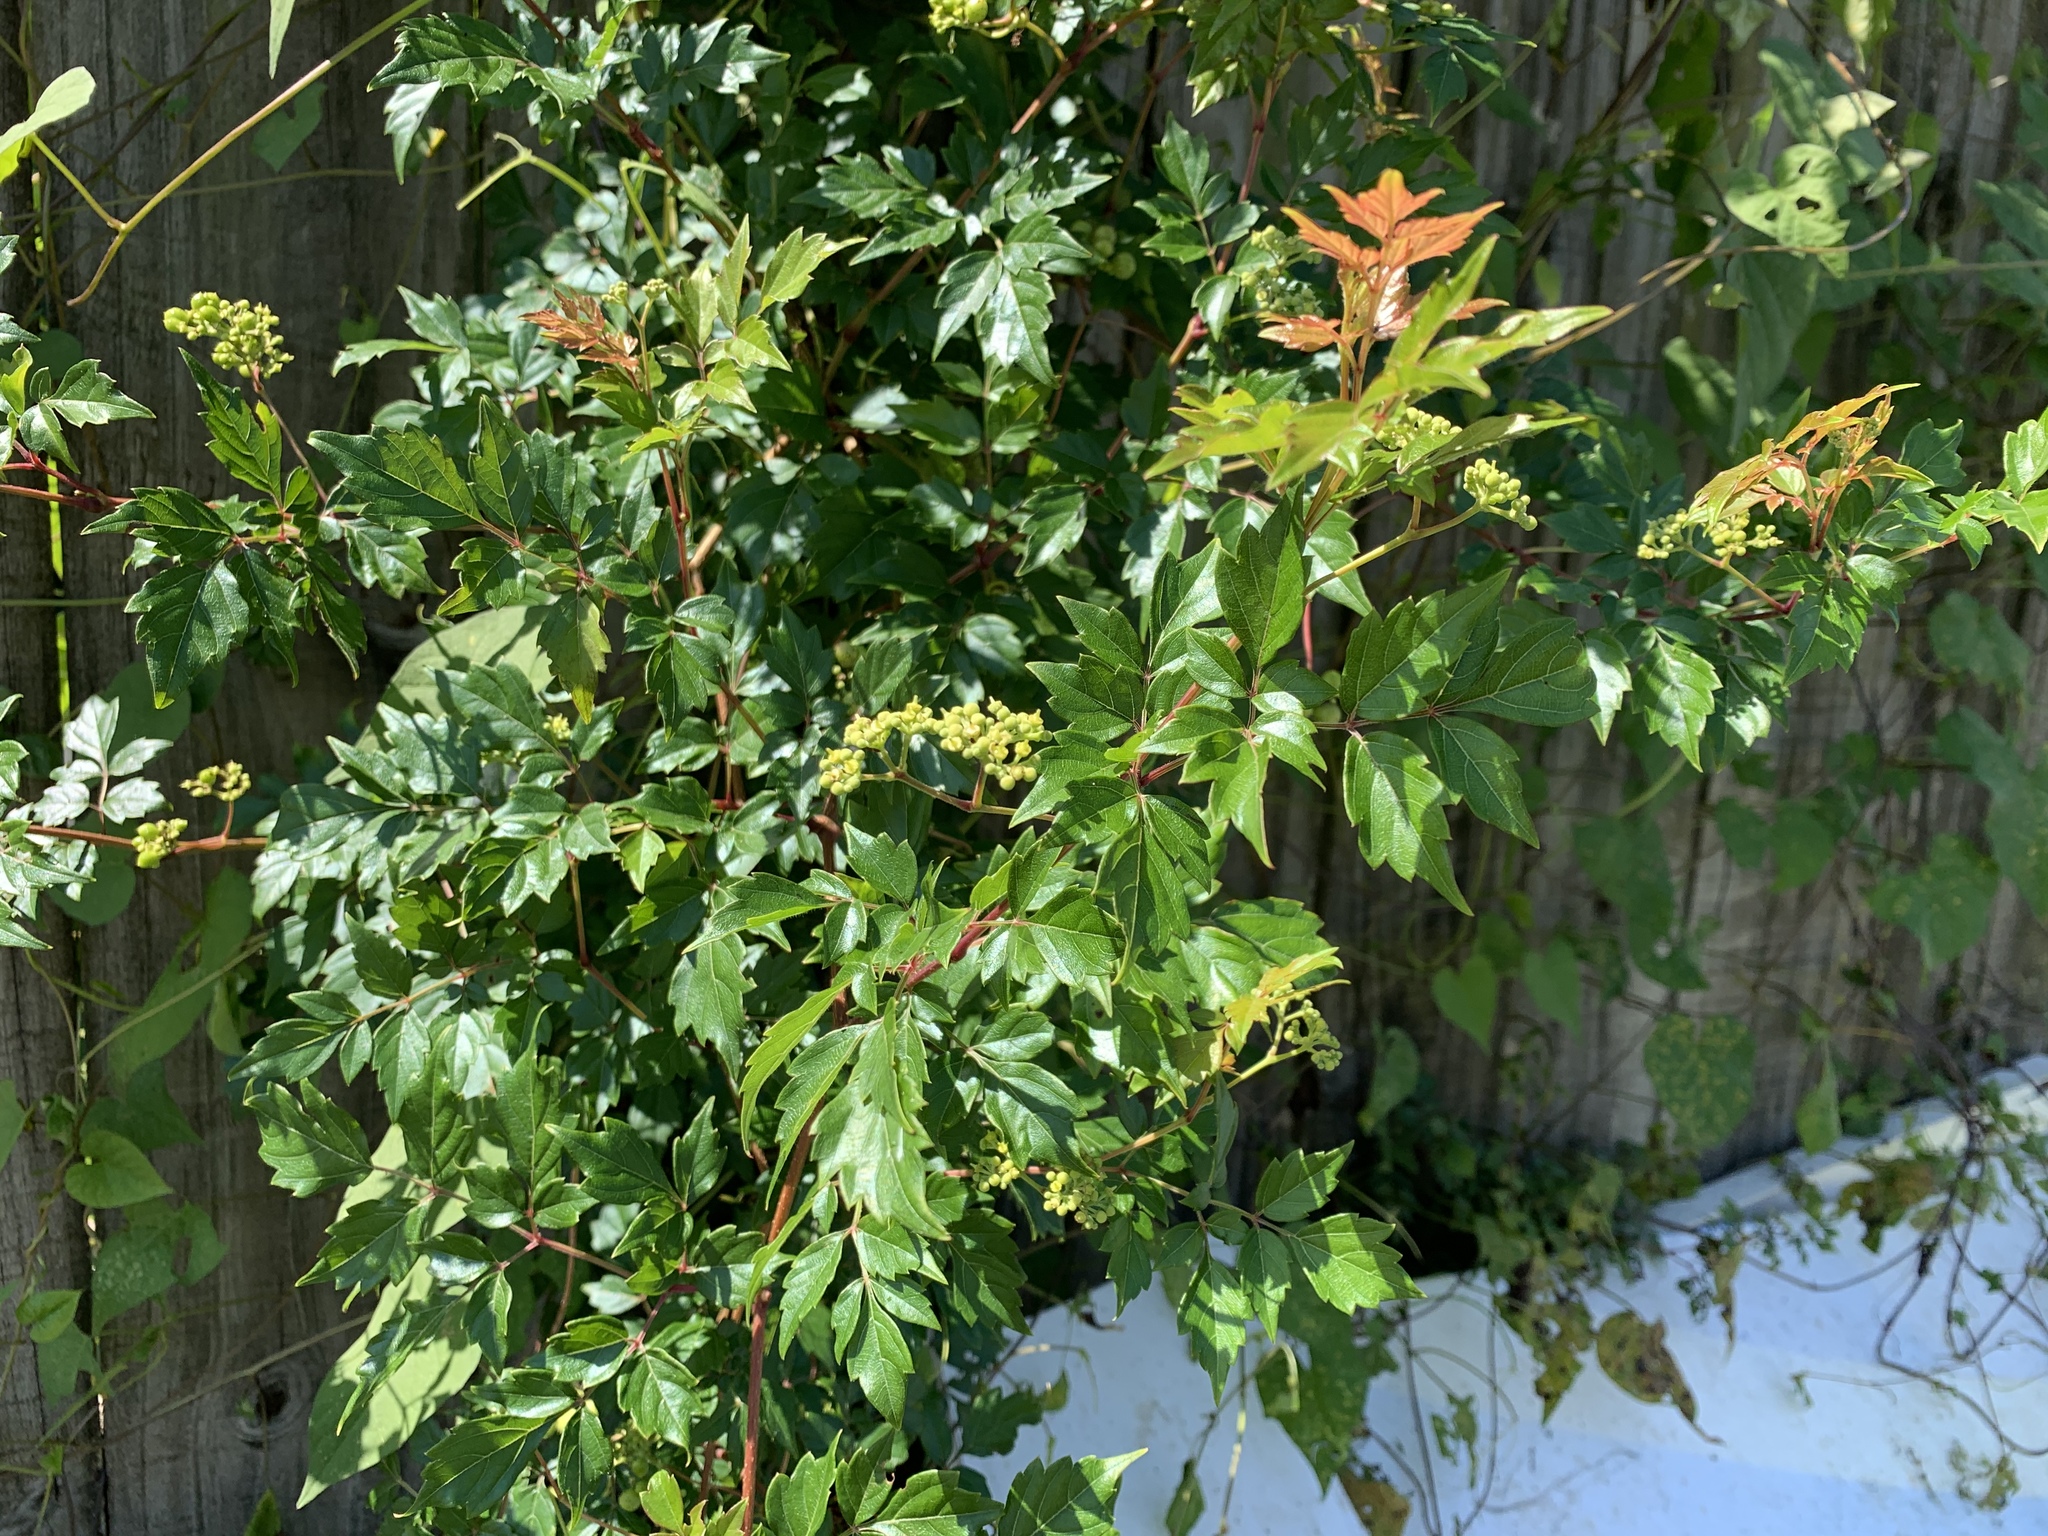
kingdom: Plantae
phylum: Tracheophyta
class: Magnoliopsida
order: Vitales
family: Vitaceae
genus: Nekemias
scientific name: Nekemias arborea
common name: Peppervine
